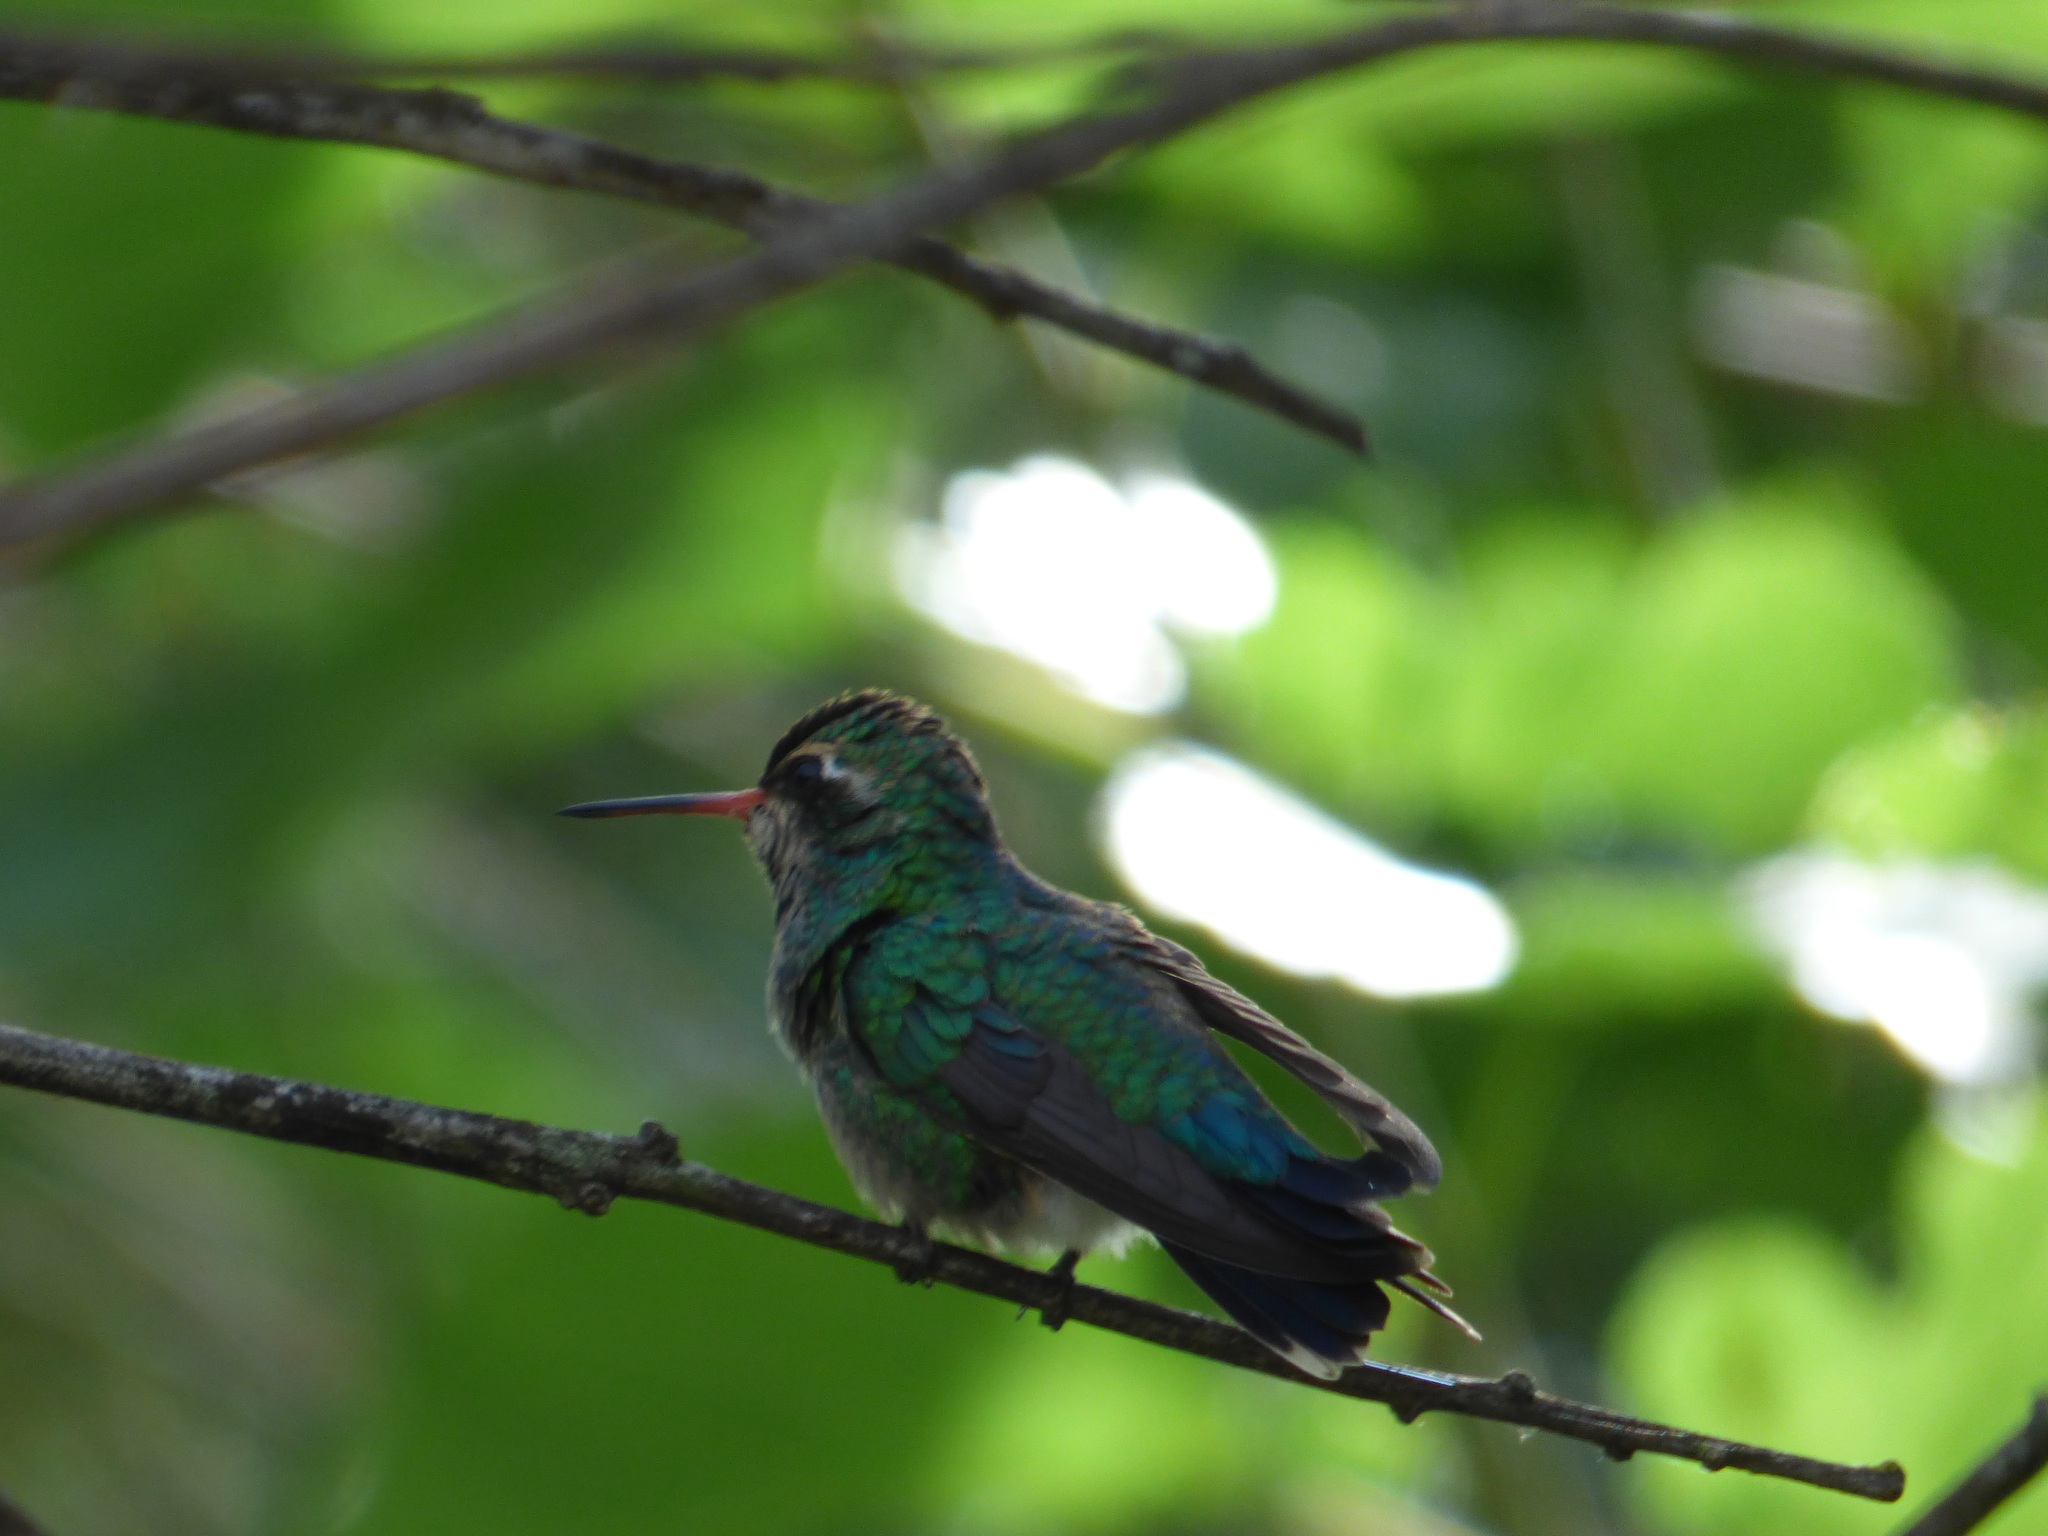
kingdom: Animalia
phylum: Chordata
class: Aves
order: Apodiformes
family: Trochilidae
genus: Chlorostilbon
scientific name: Chlorostilbon lucidus
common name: Glittering-bellied emerald
